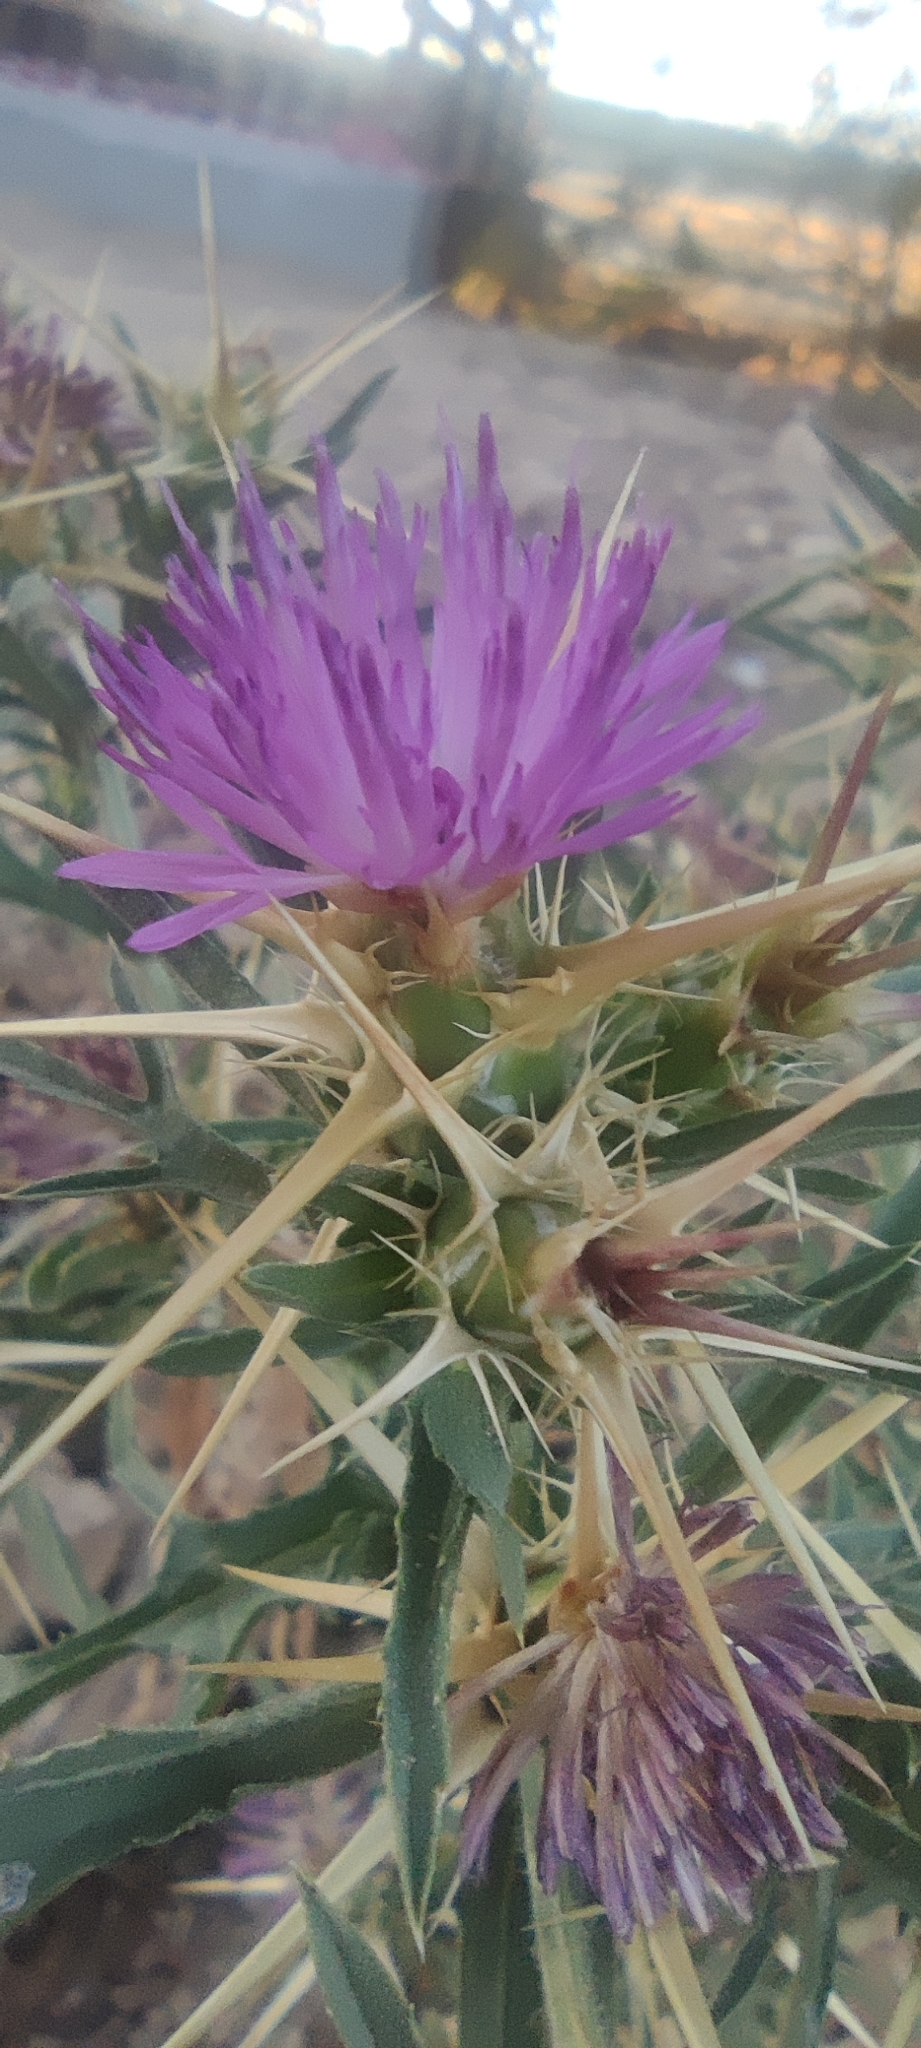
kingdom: Plantae
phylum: Tracheophyta
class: Magnoliopsida
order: Asterales
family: Asteraceae
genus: Centaurea
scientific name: Centaurea calcitrapa
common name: Red star-thistle
